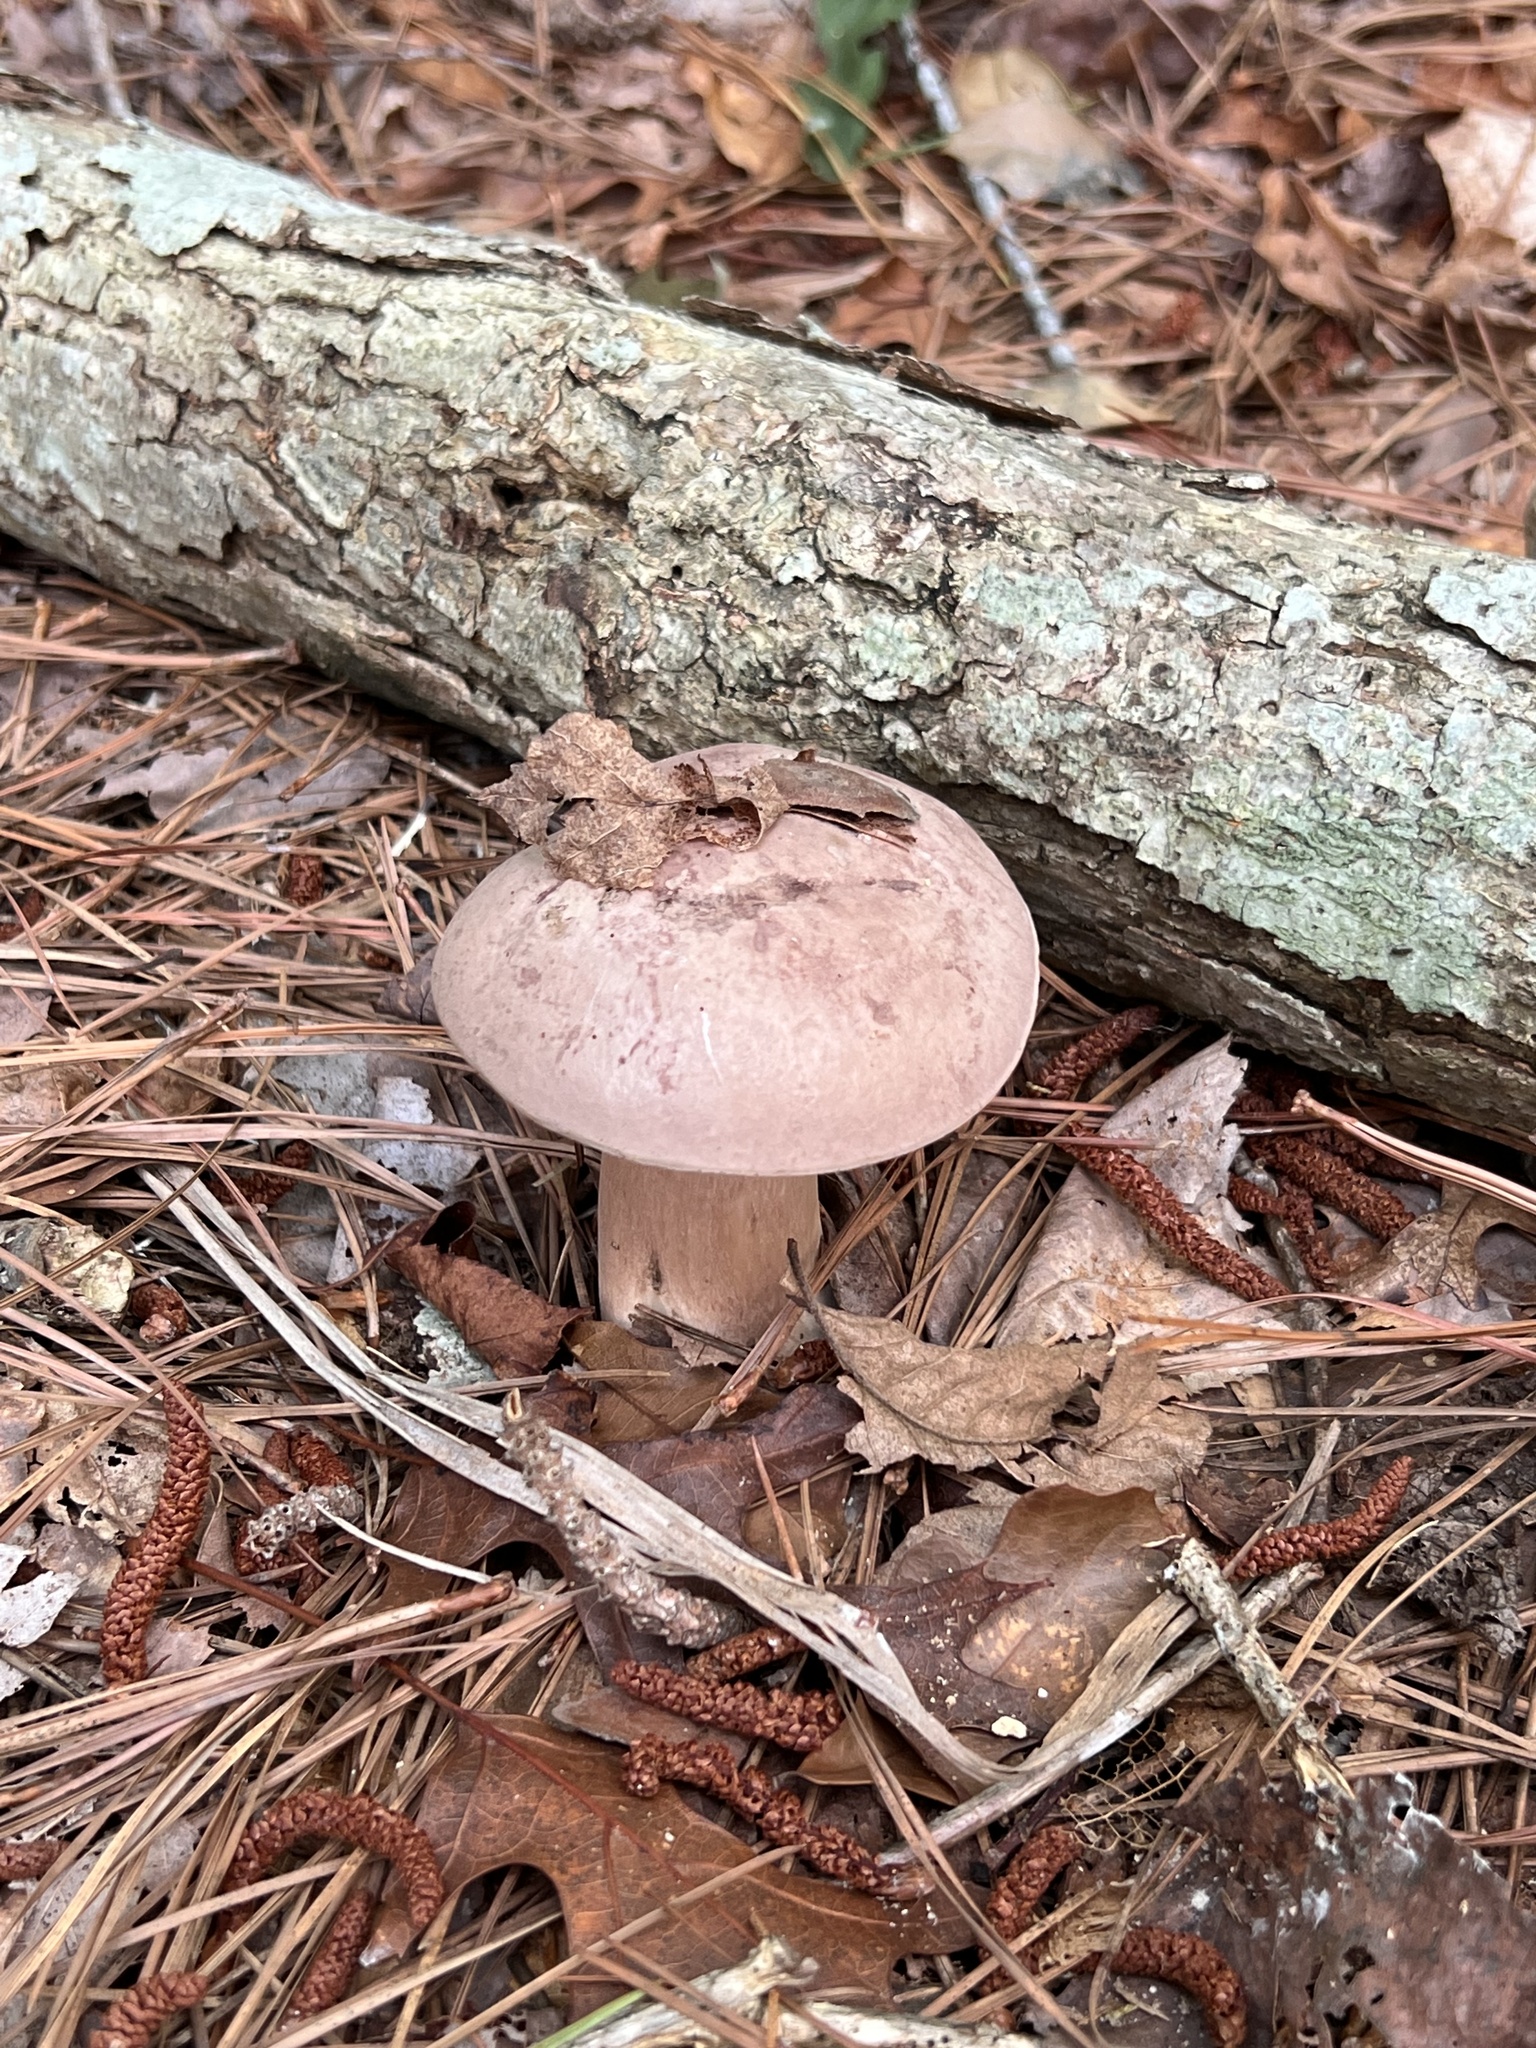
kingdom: Fungi
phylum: Basidiomycota
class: Agaricomycetes
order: Boletales
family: Boletaceae
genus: Tylopilus
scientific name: Tylopilus
